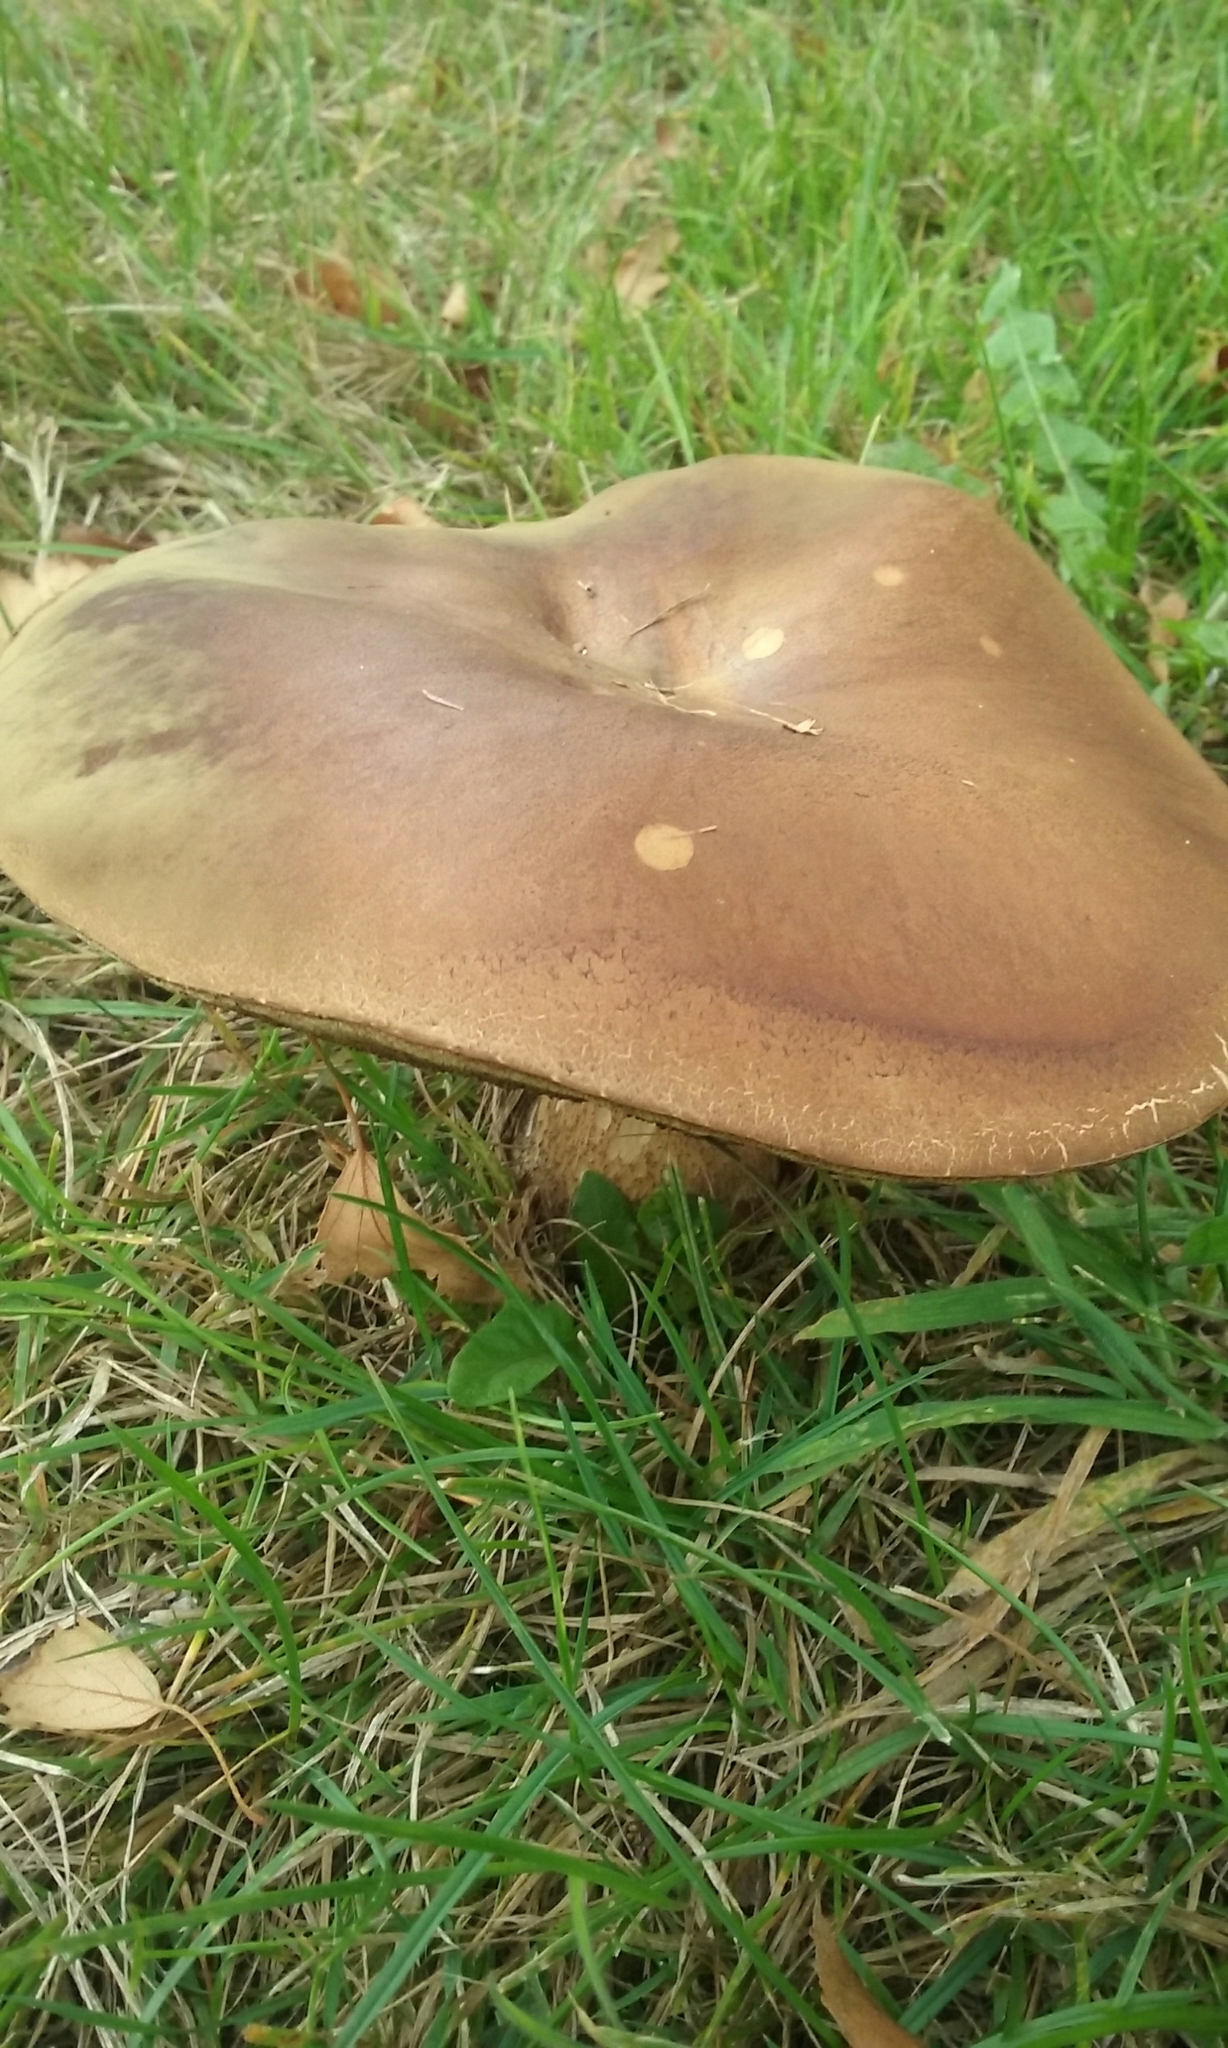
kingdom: Fungi
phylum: Basidiomycota
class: Agaricomycetes
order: Boletales
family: Boletaceae
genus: Leccinum
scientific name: Leccinum scabrum
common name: Blushing bolete
